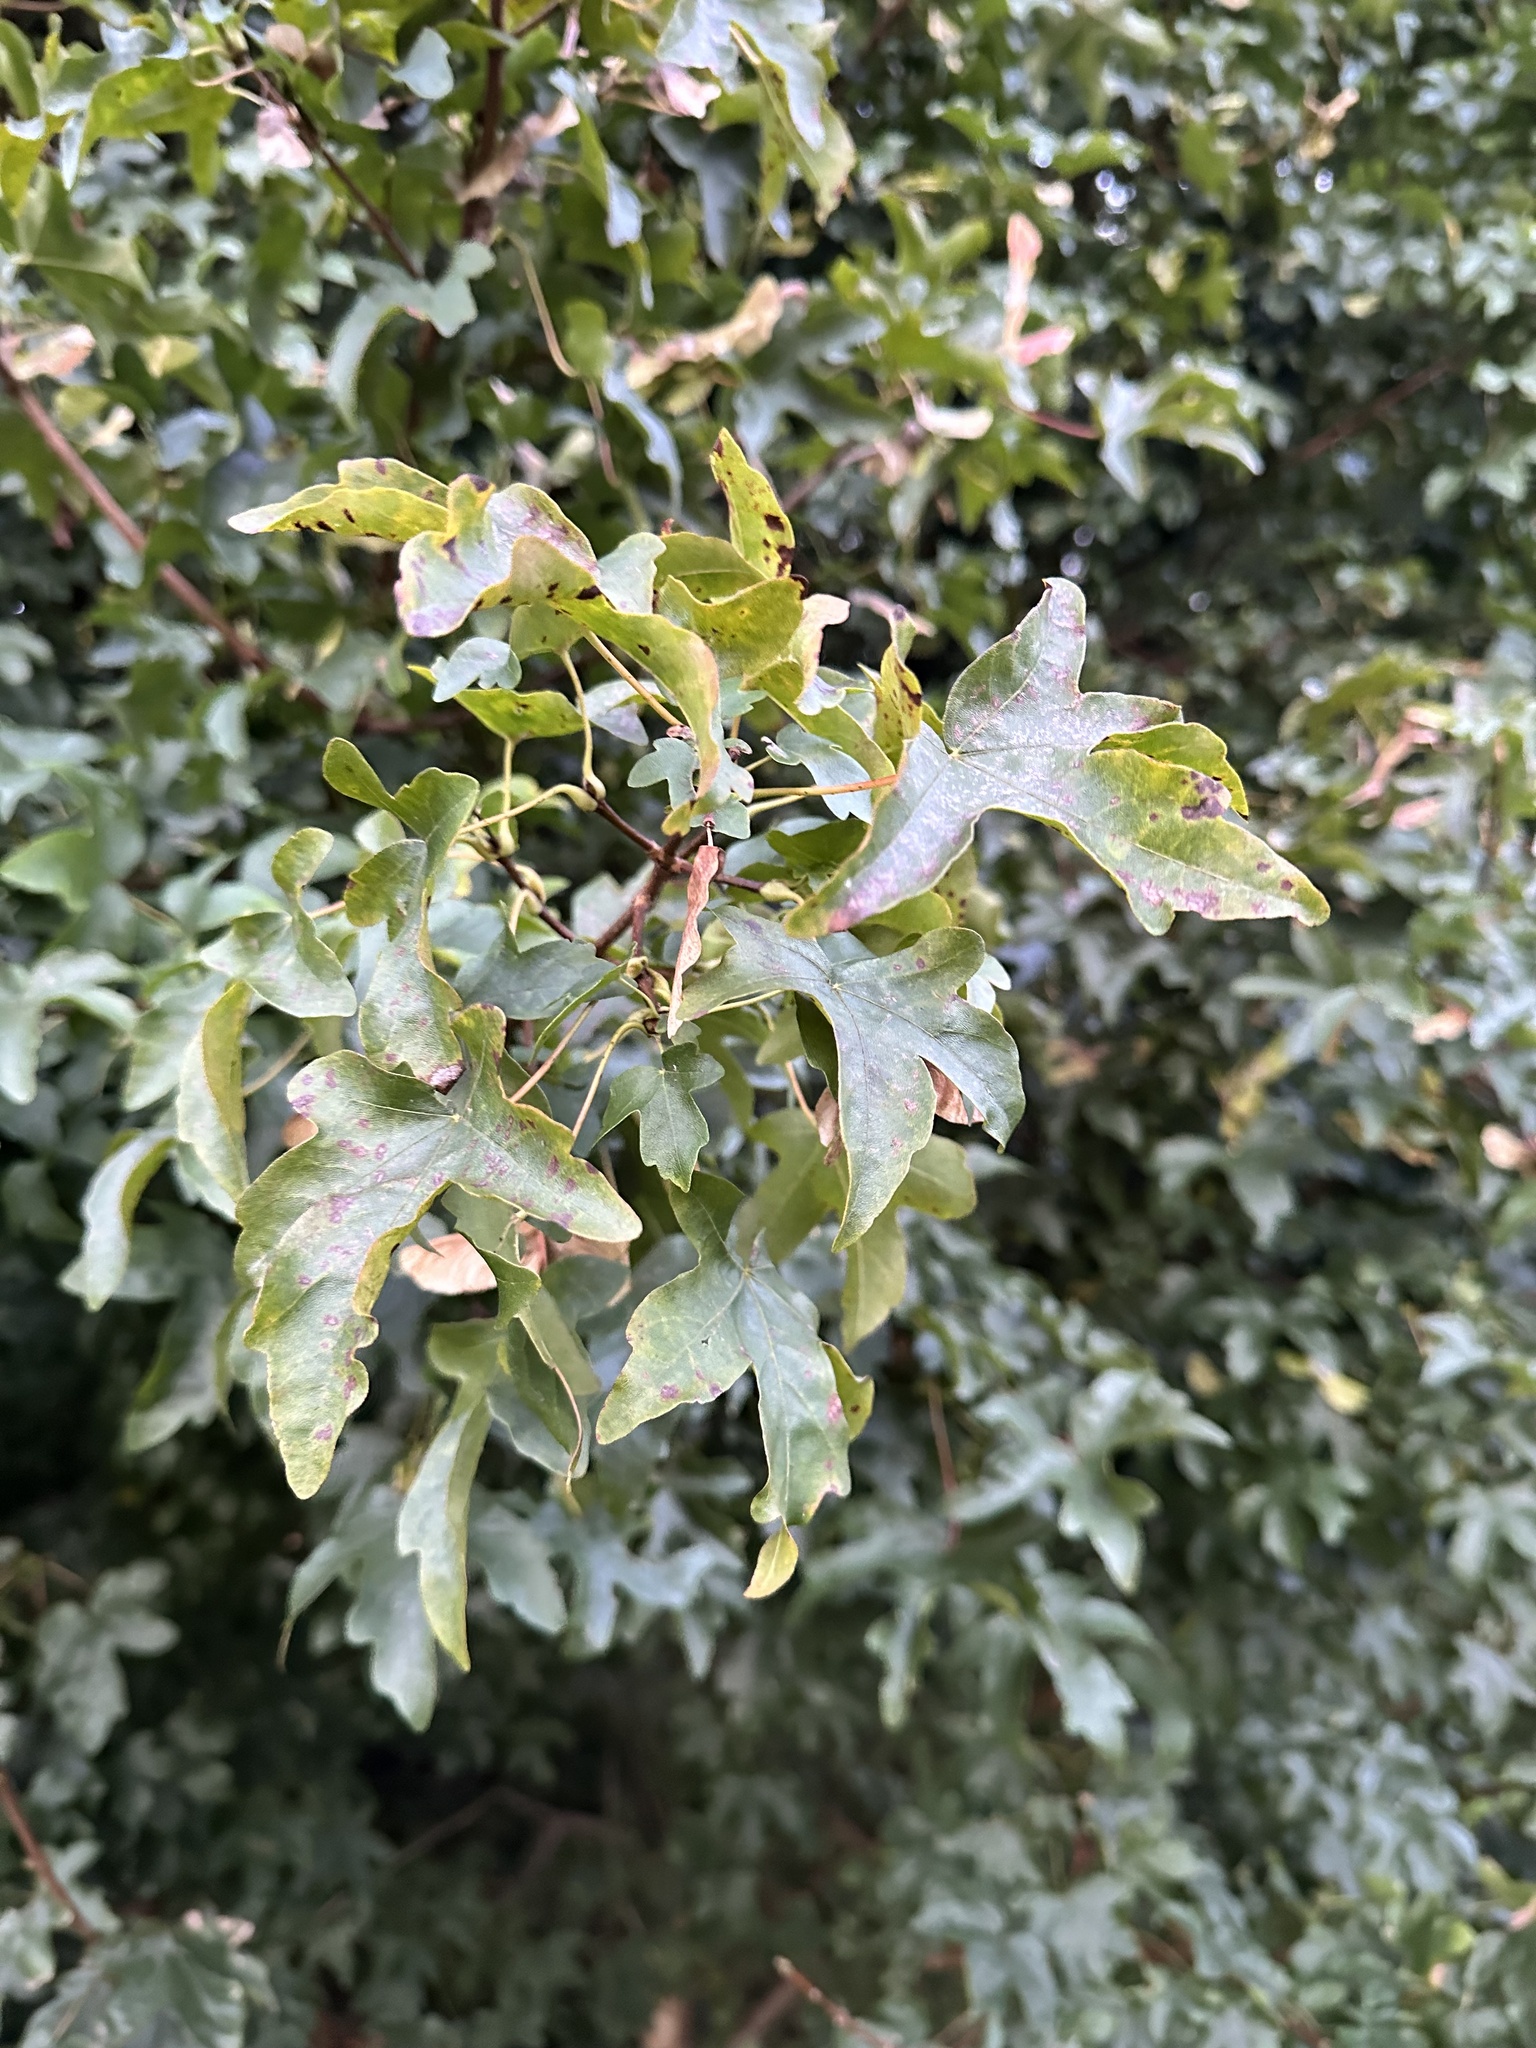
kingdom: Plantae
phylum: Tracheophyta
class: Magnoliopsida
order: Sapindales
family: Sapindaceae
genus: Acer
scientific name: Acer campestre
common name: Field maple
